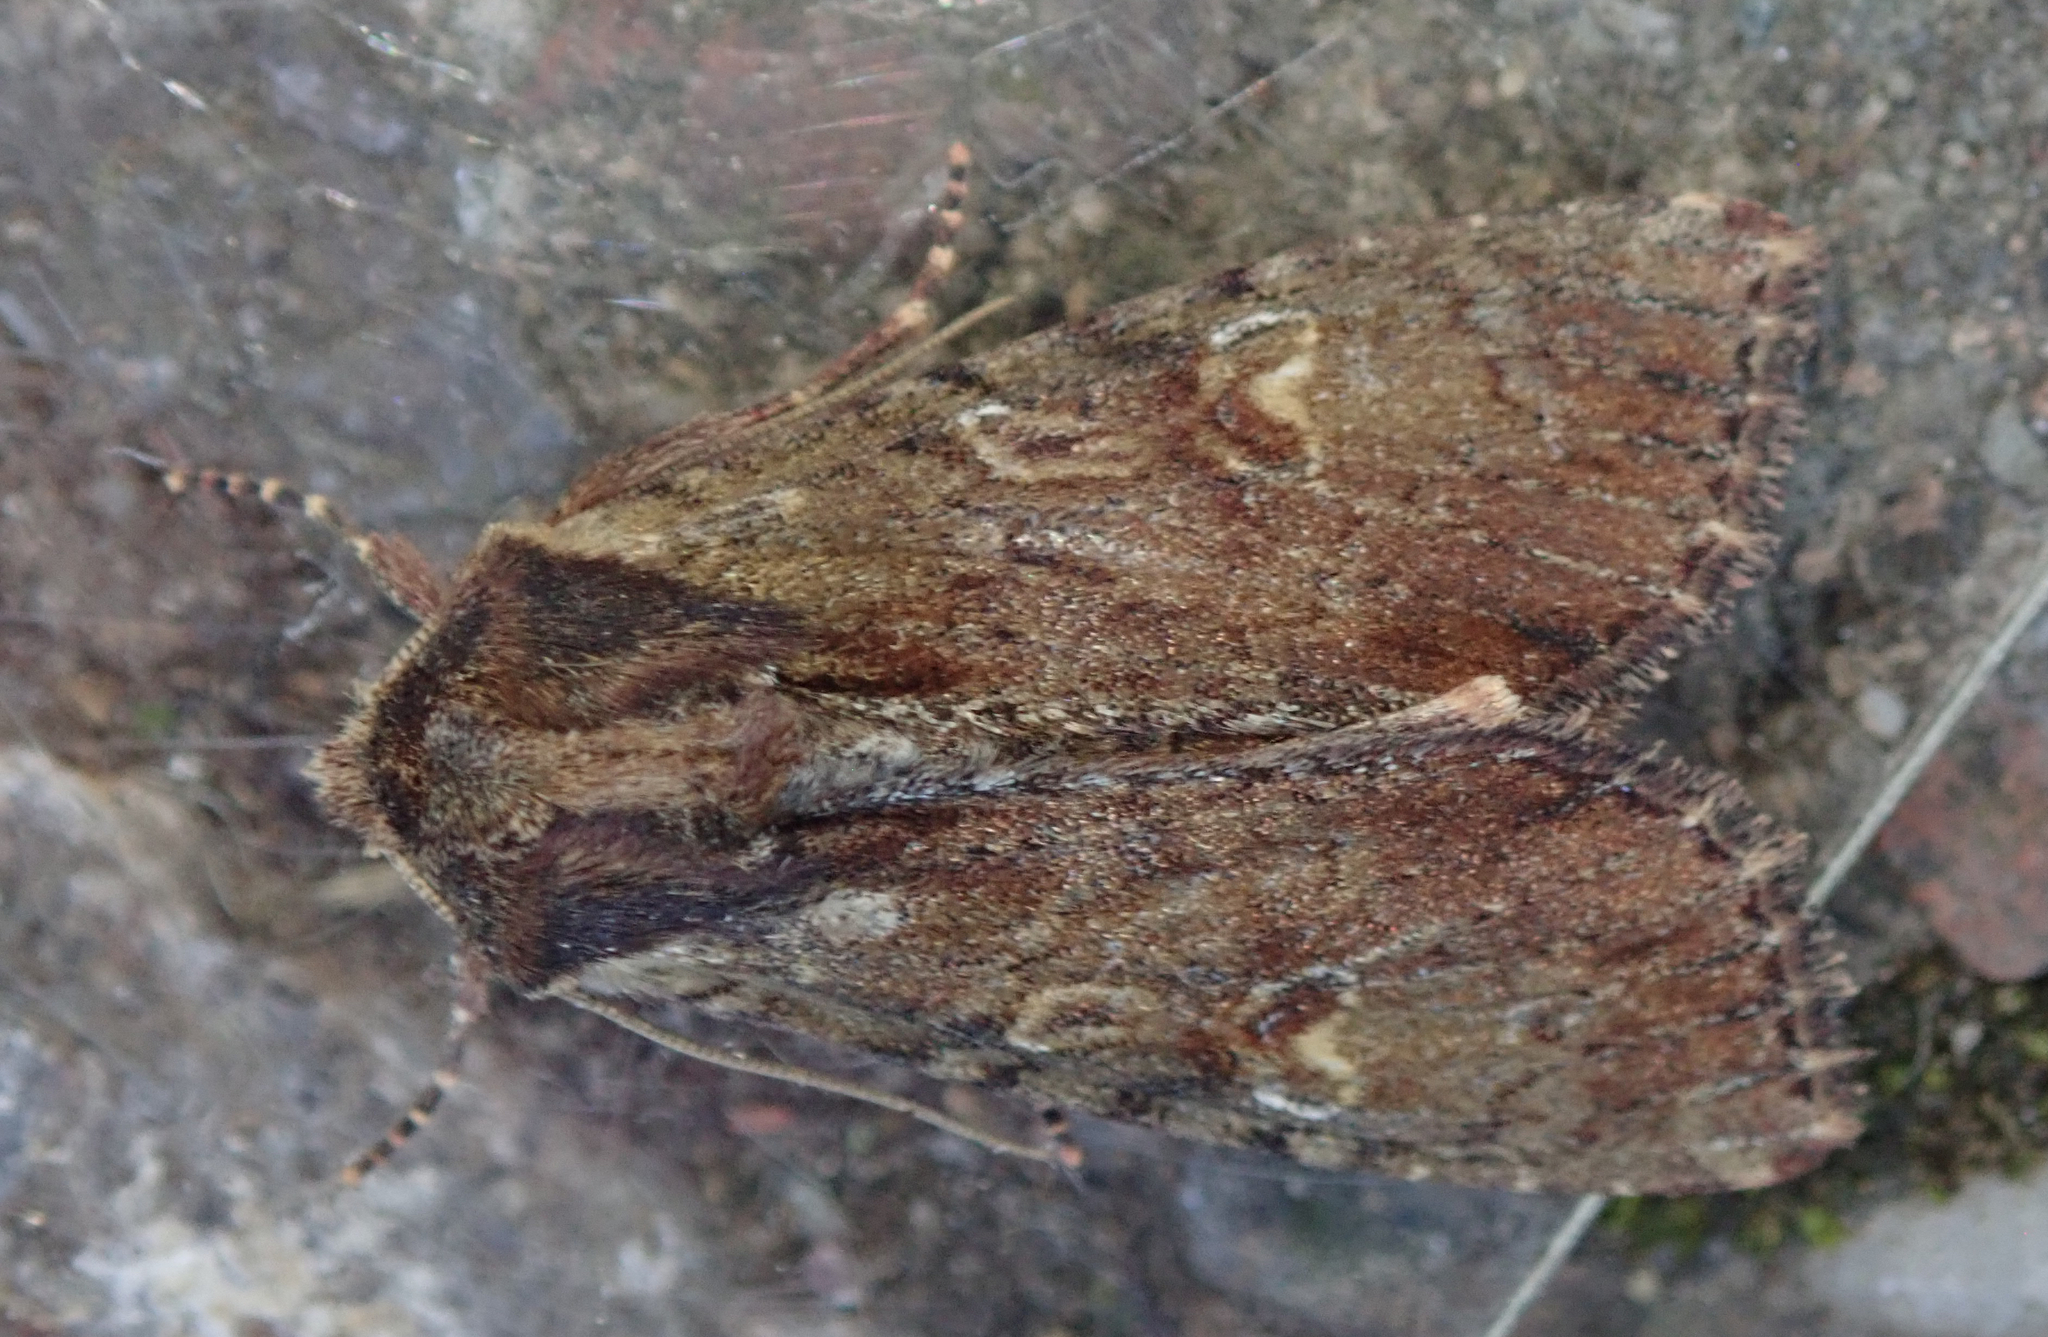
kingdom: Animalia
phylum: Arthropoda
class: Insecta
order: Lepidoptera
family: Noctuidae
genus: Apamea
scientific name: Apamea crenata
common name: Clouded-bordered brindle
